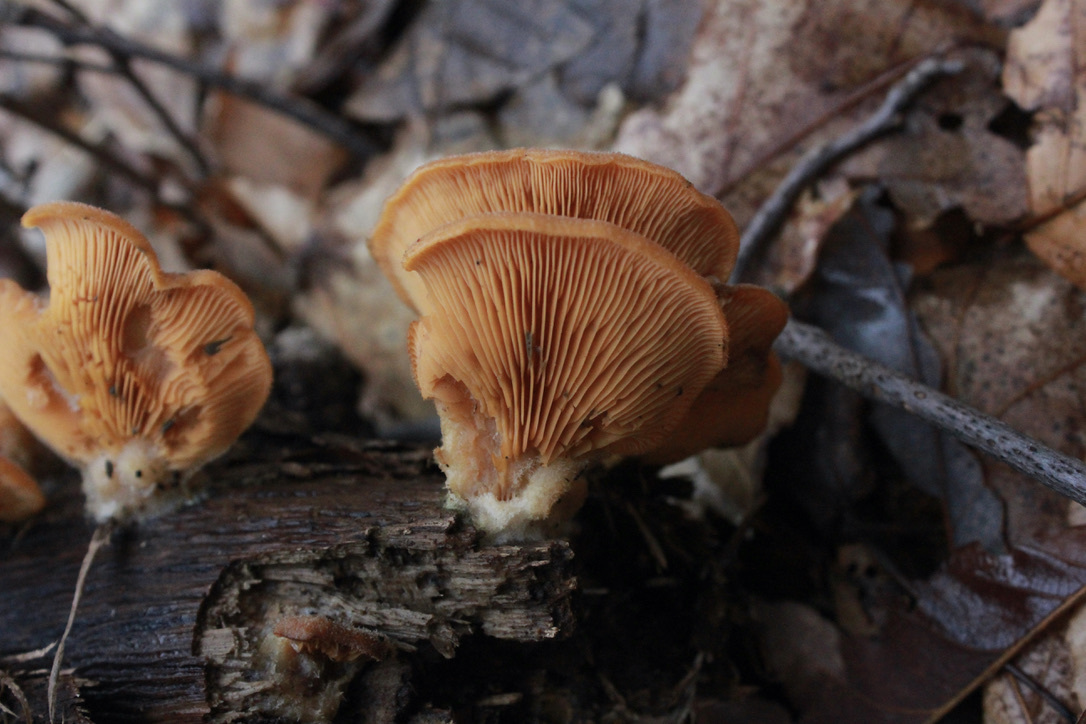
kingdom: Fungi
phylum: Basidiomycota
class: Agaricomycetes
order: Agaricales
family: Phyllotopsidaceae
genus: Phyllotopsis
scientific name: Phyllotopsis nidulans
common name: Orange mock oyster
